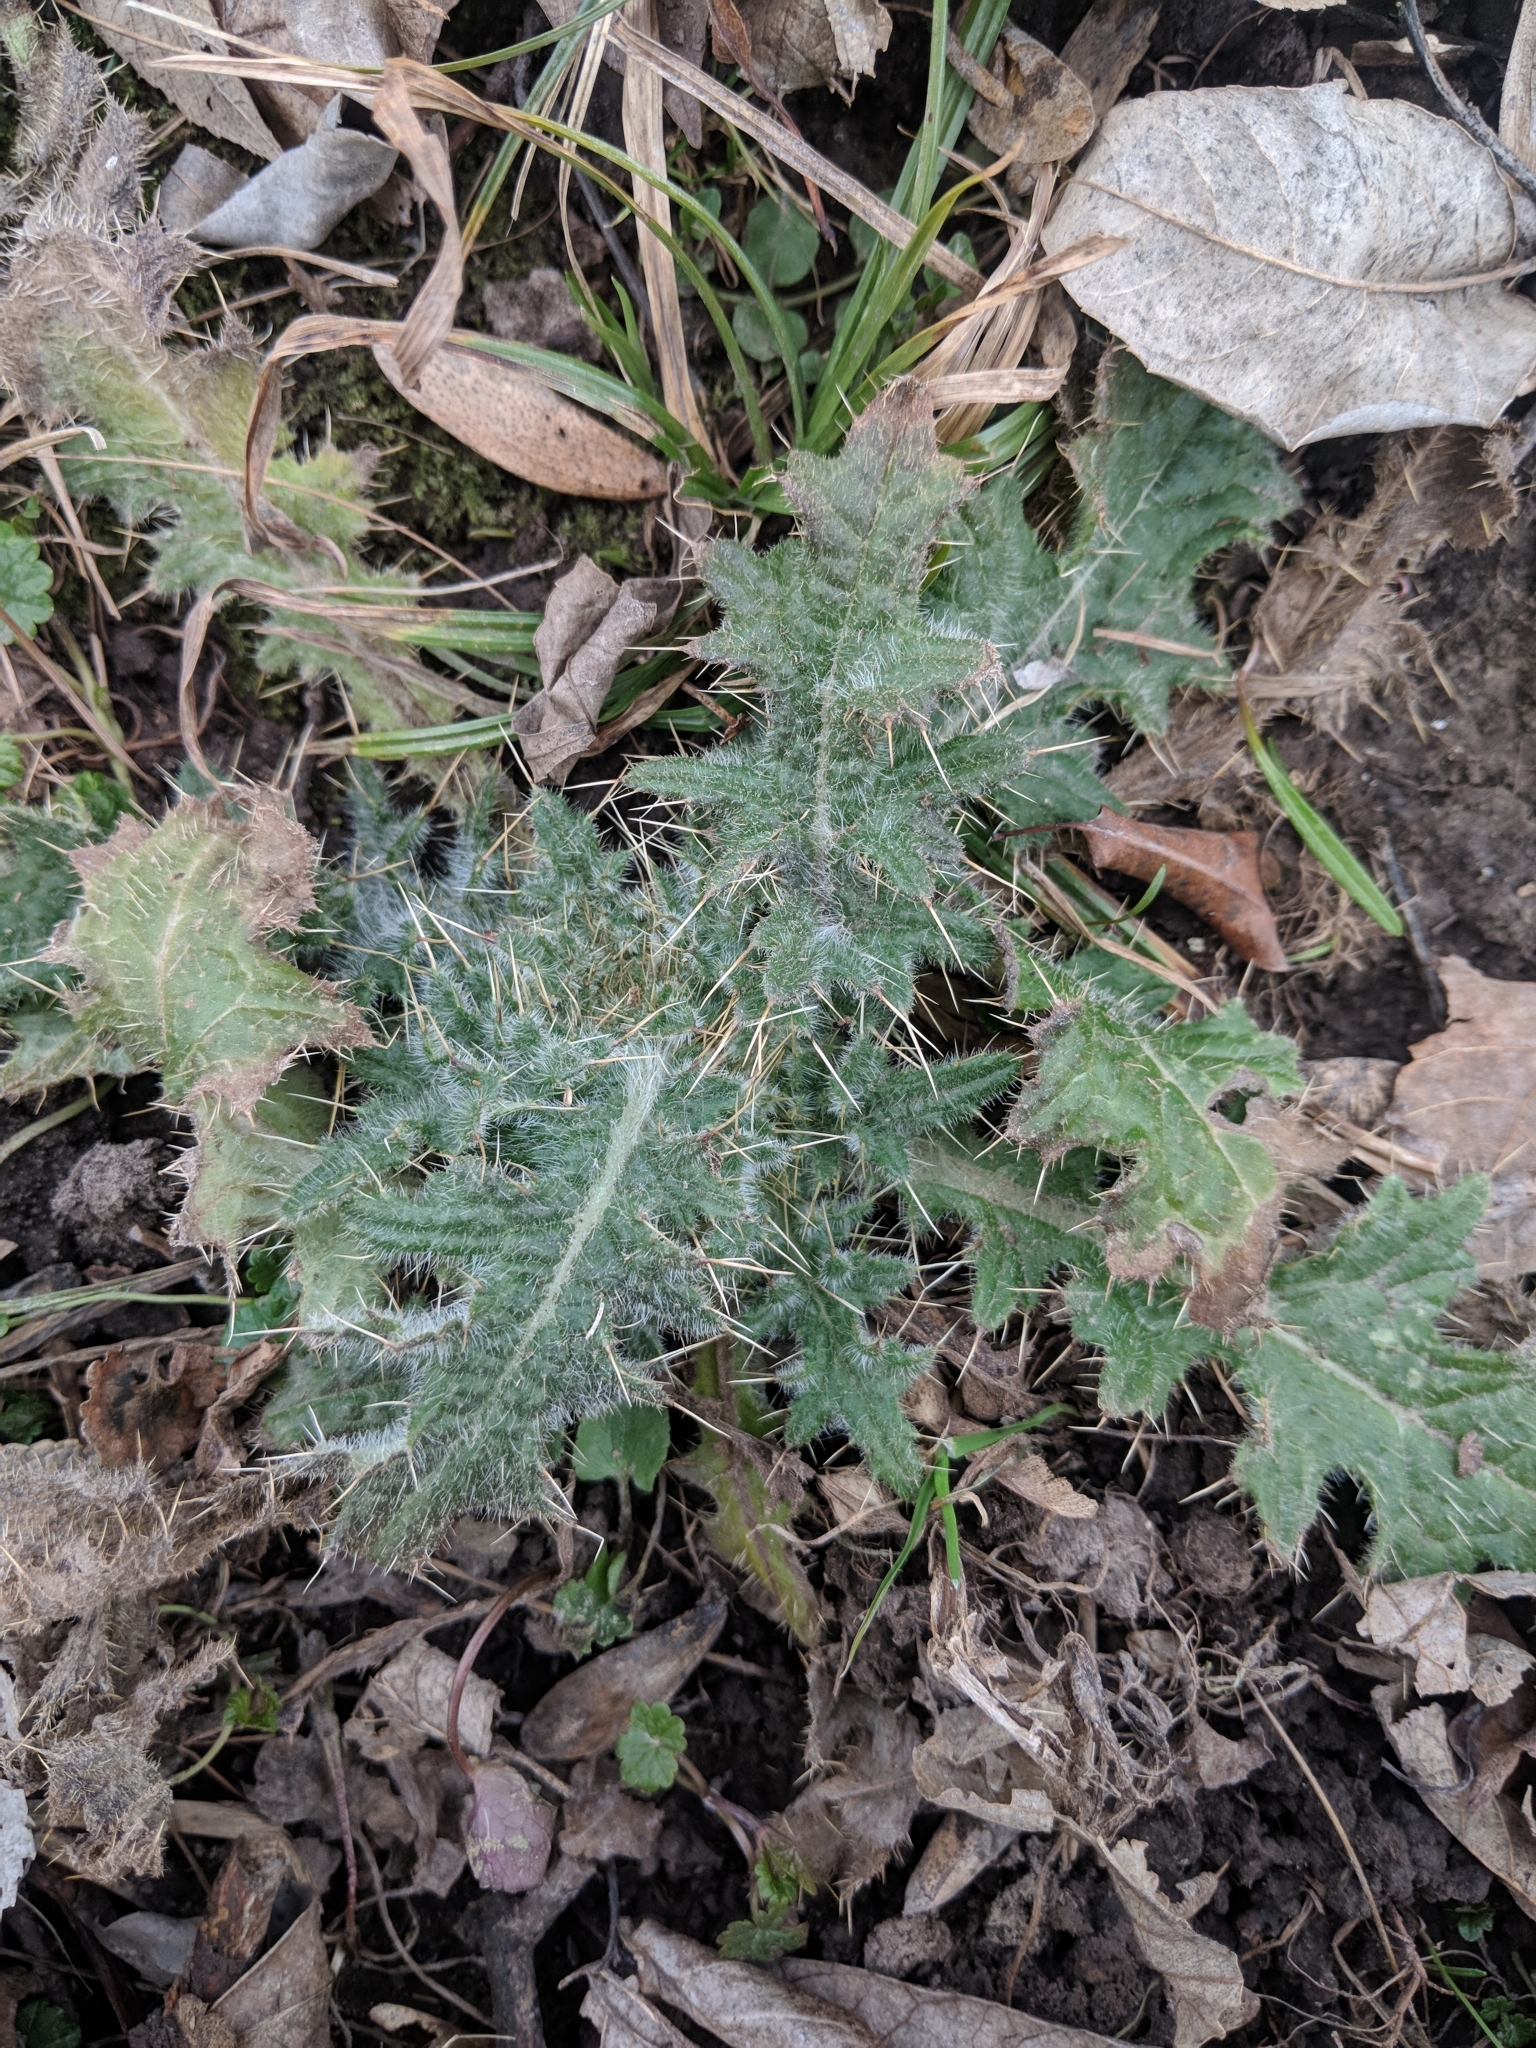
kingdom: Plantae
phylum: Tracheophyta
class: Magnoliopsida
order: Asterales
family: Asteraceae
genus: Cirsium
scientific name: Cirsium vulgare
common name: Bull thistle
